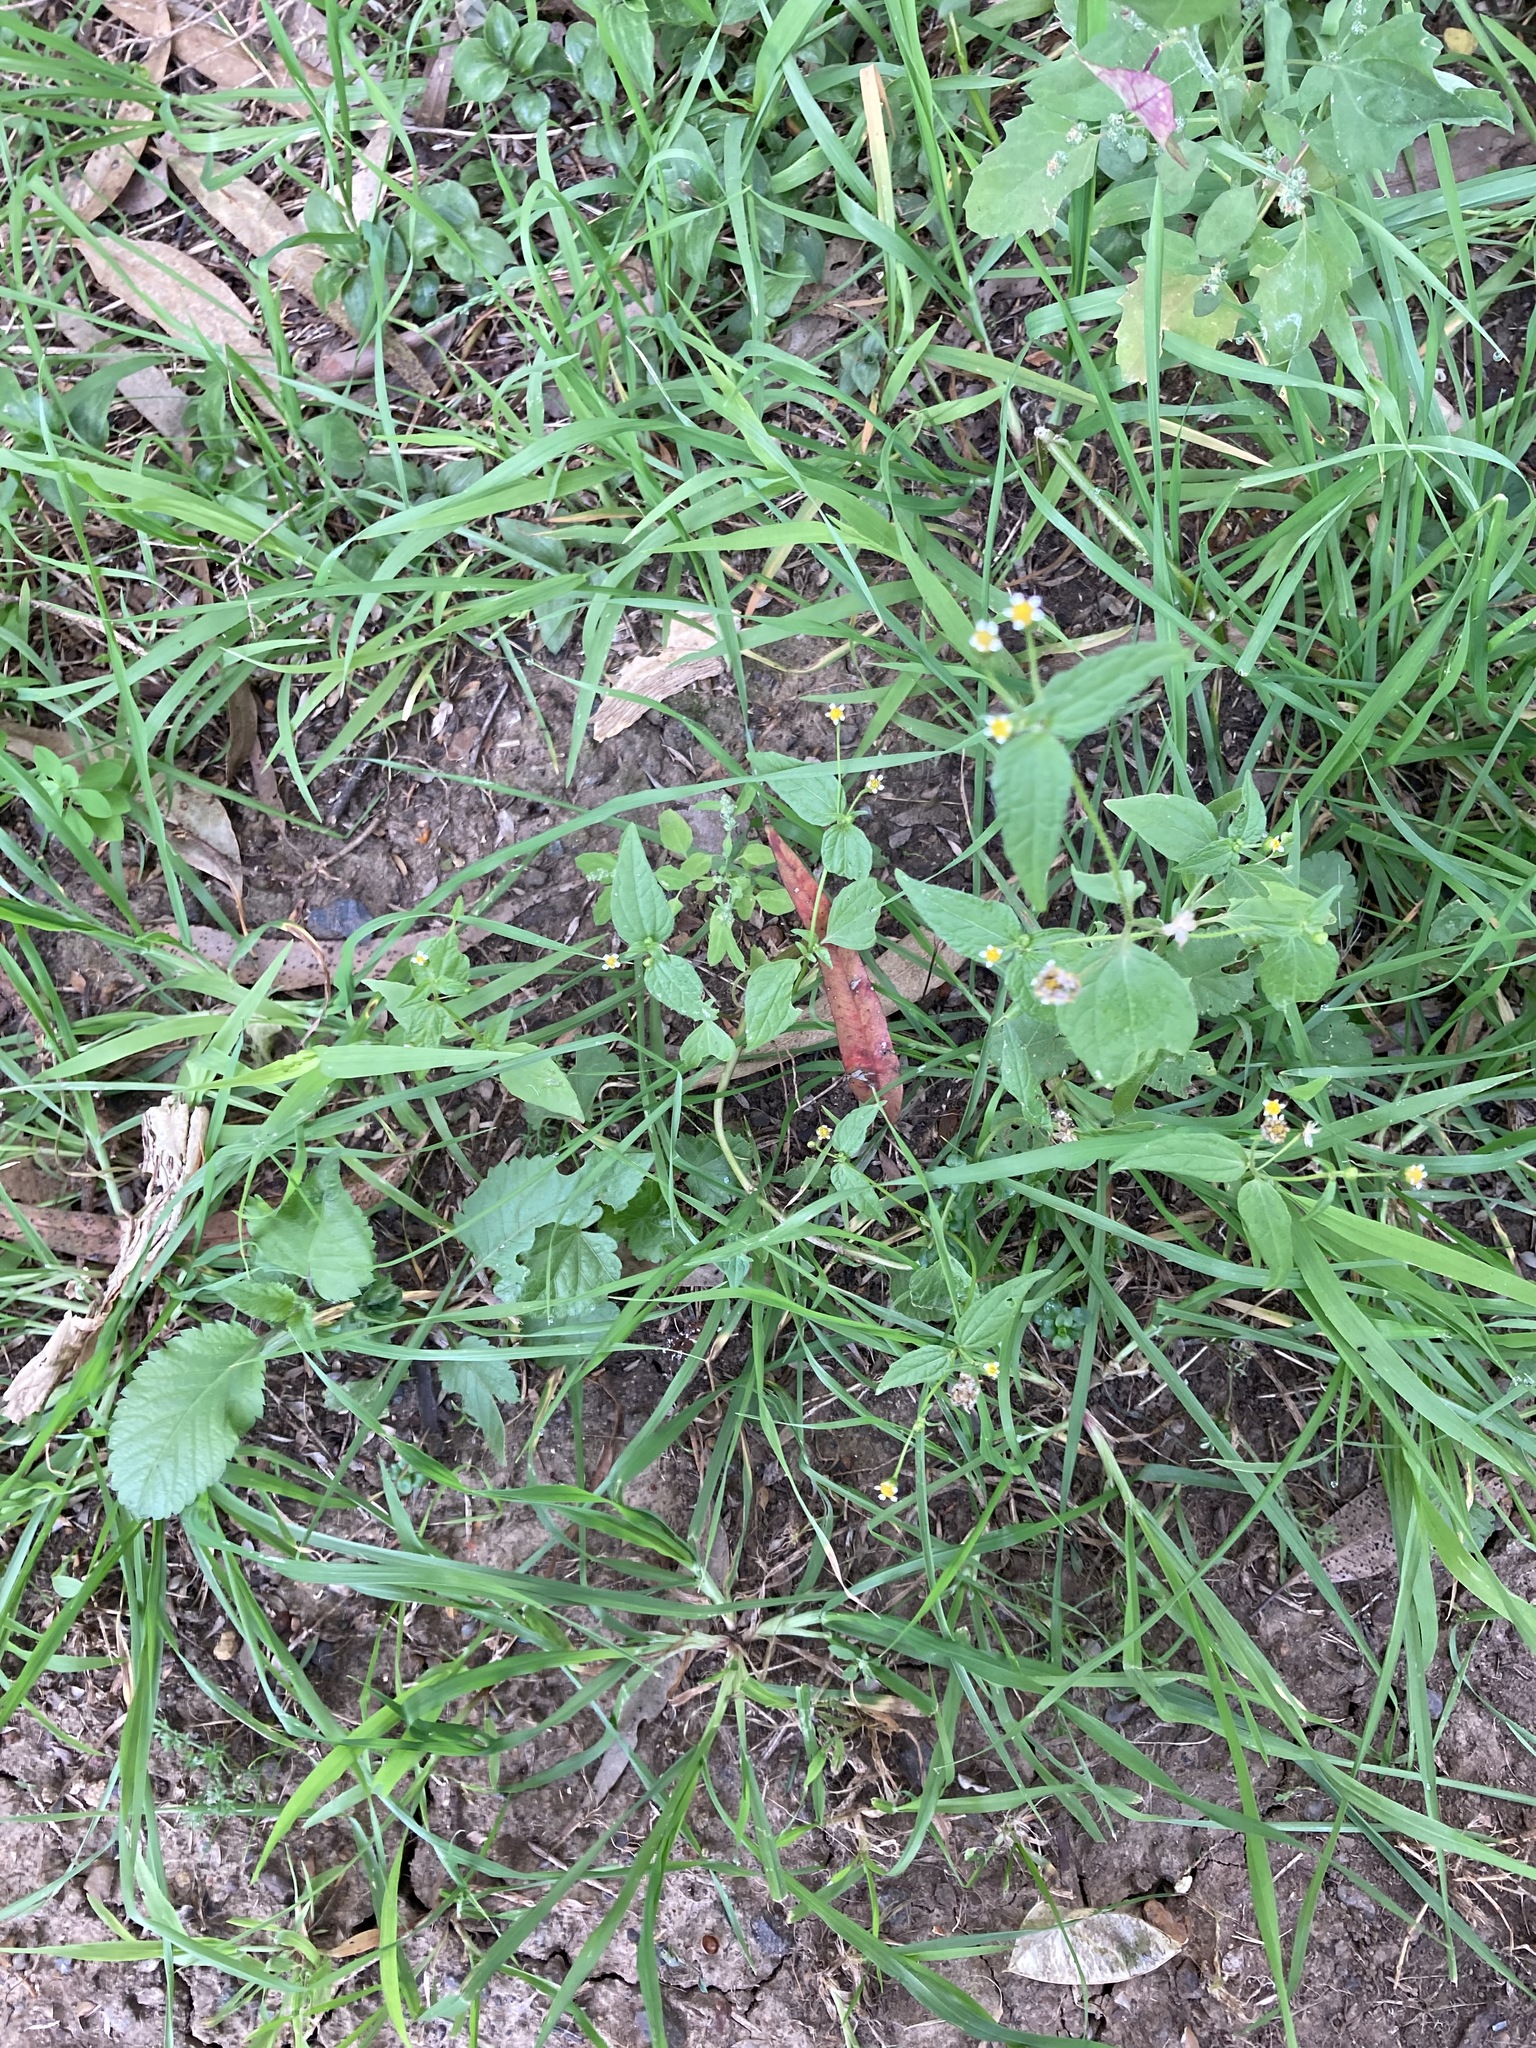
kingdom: Plantae
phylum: Tracheophyta
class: Magnoliopsida
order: Asterales
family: Asteraceae
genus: Galinsoga
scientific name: Galinsoga parviflora
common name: Gallant soldier
